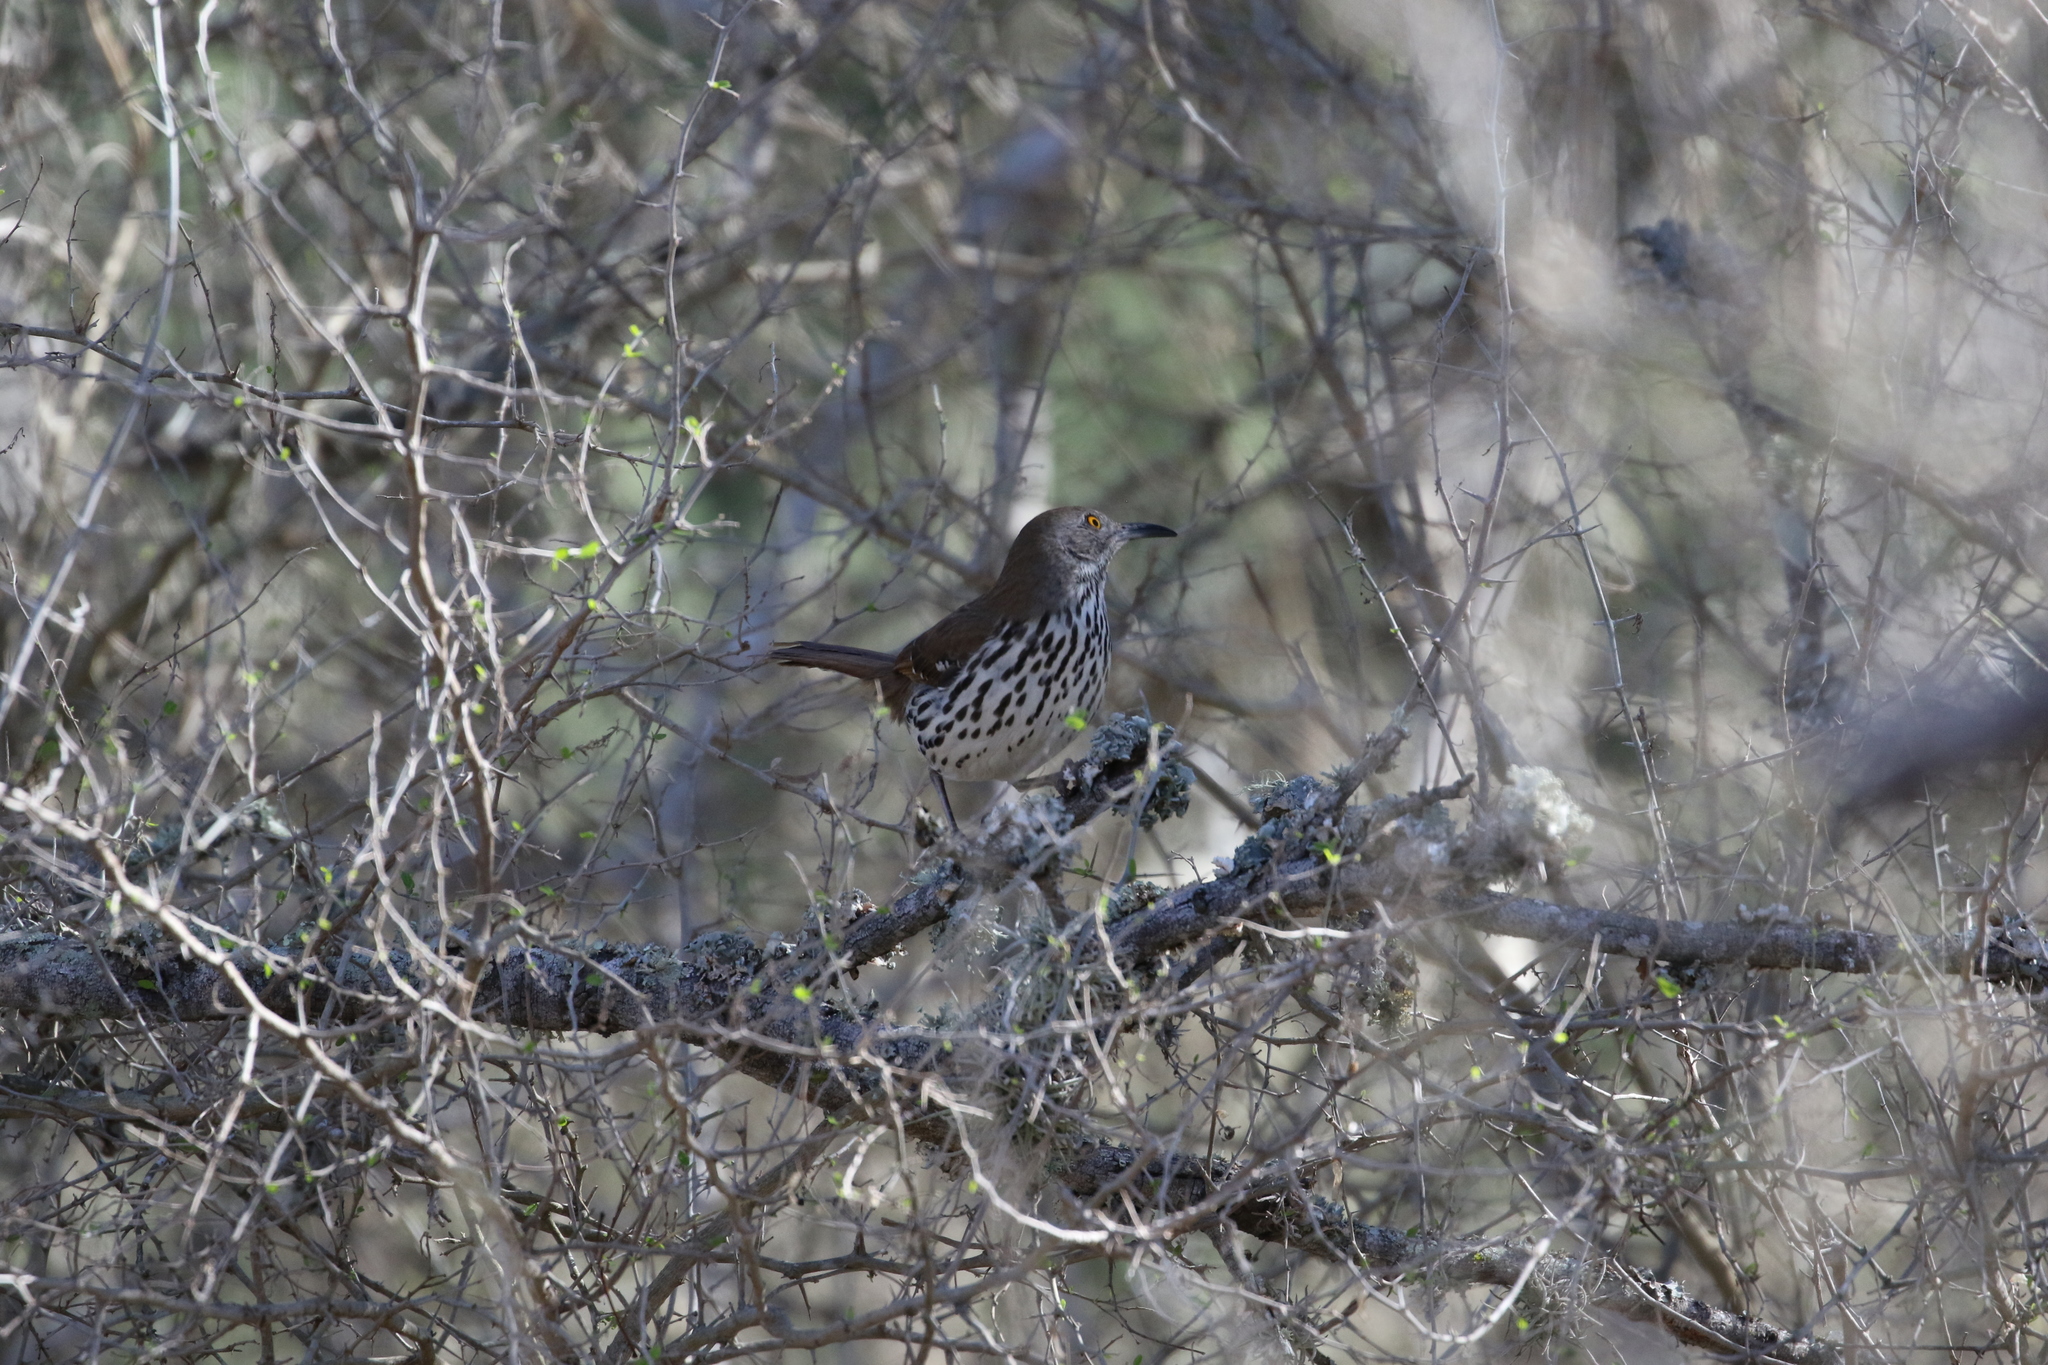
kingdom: Animalia
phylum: Chordata
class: Aves
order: Passeriformes
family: Mimidae
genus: Toxostoma
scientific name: Toxostoma longirostre
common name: Long-billed thrasher
